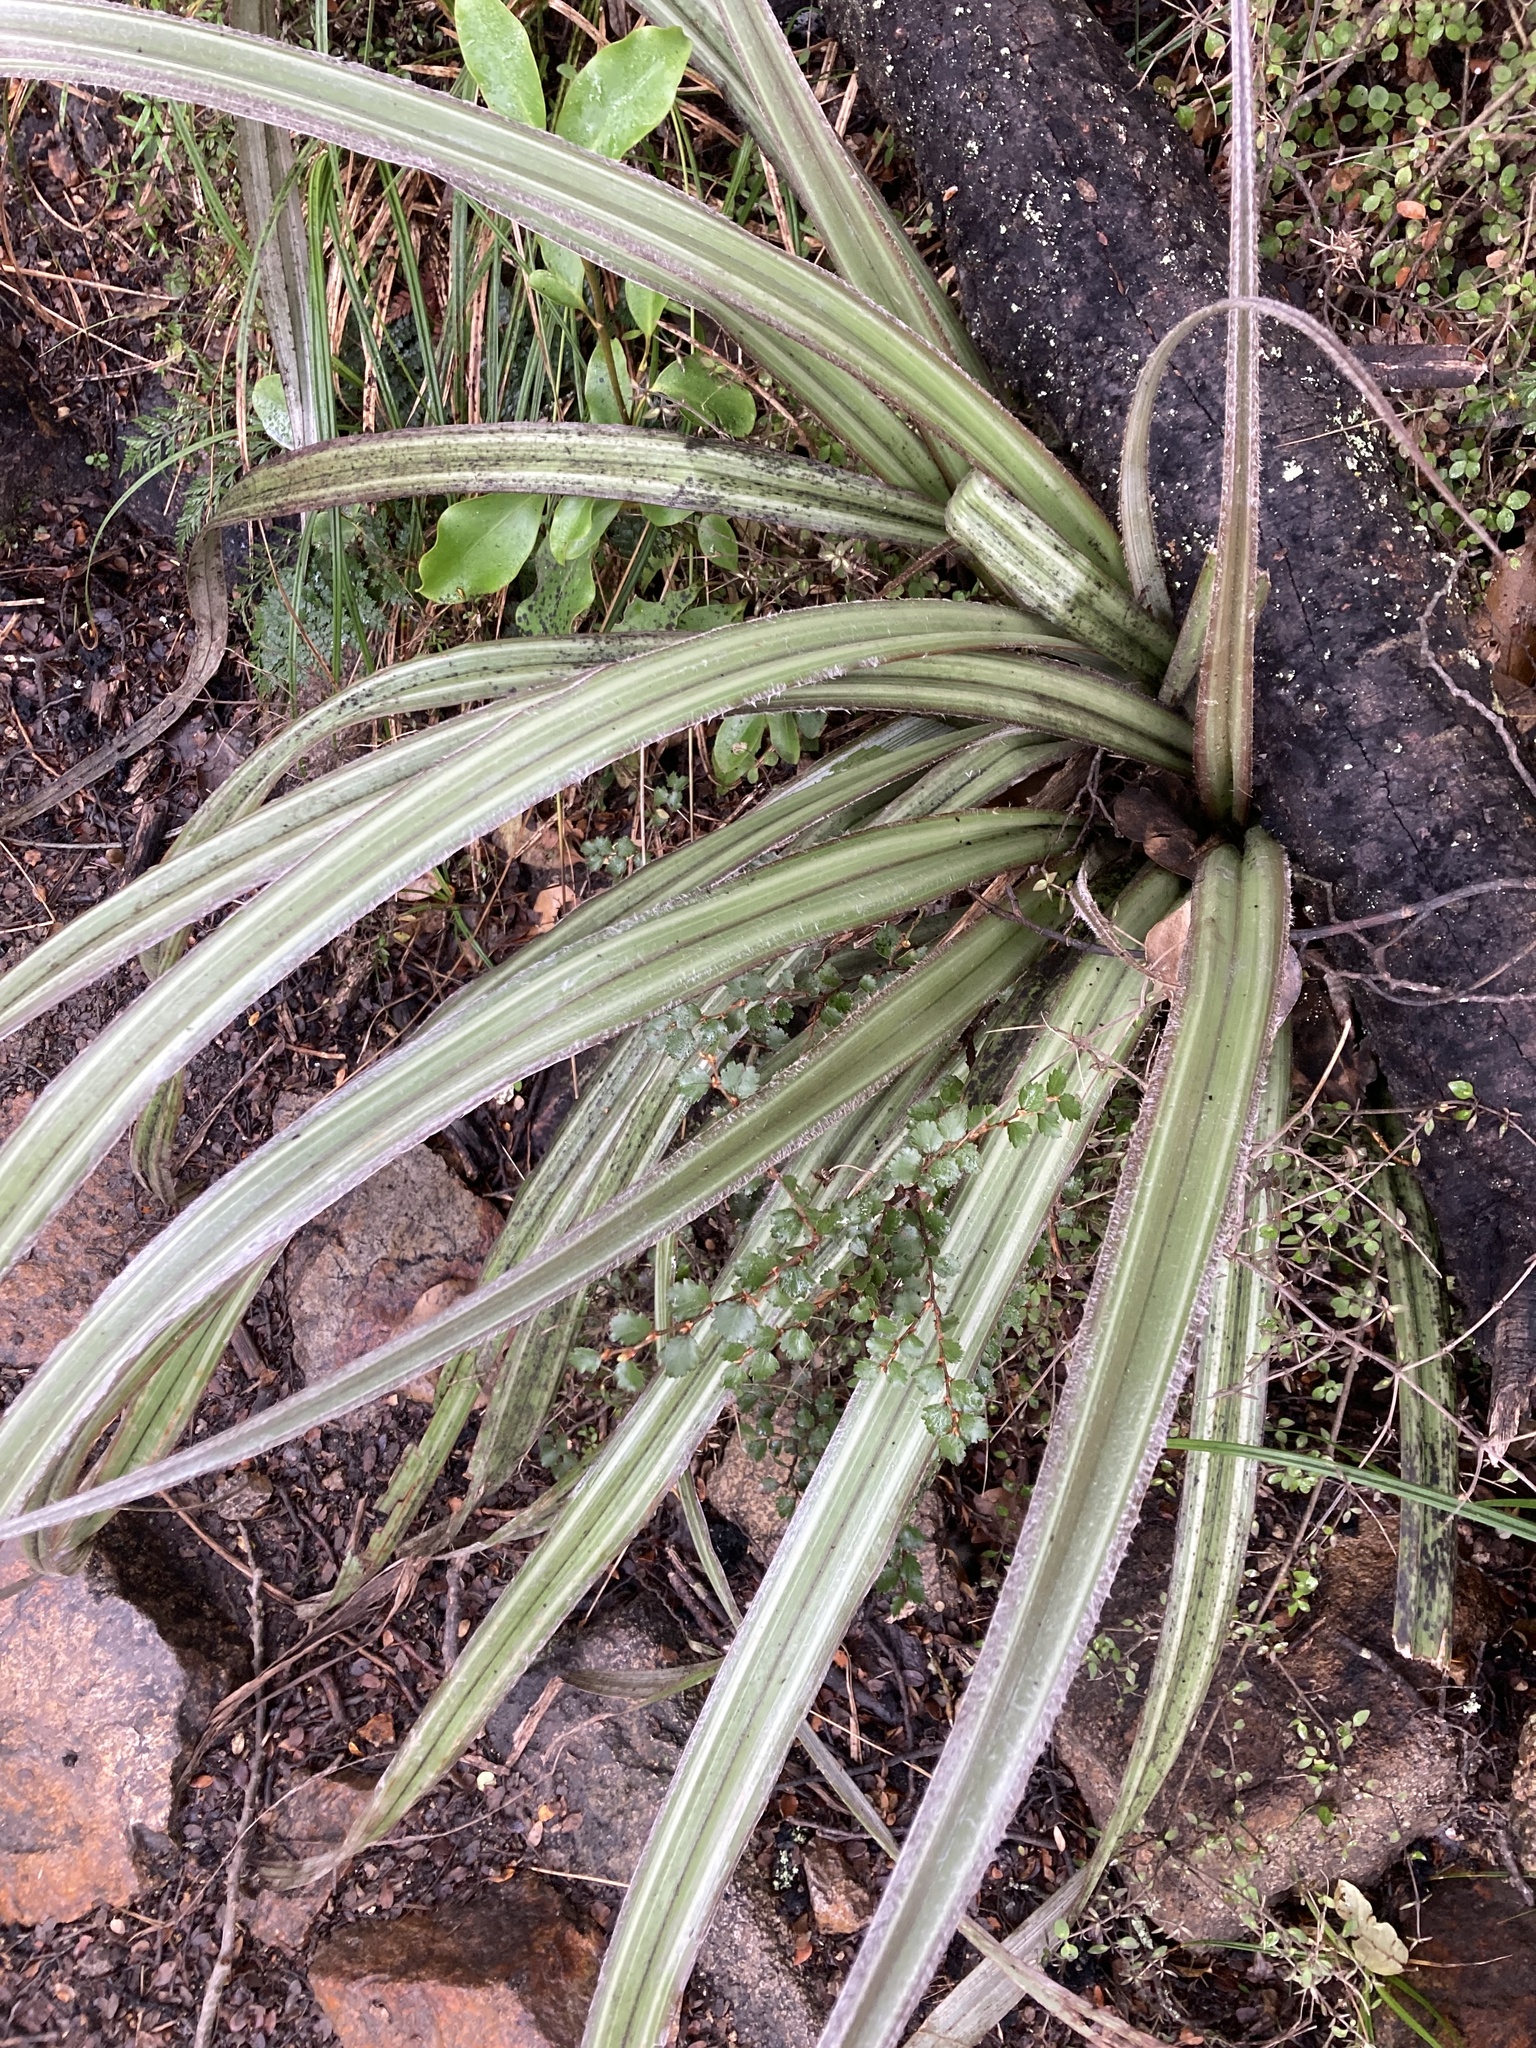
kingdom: Plantae
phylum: Tracheophyta
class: Liliopsida
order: Asparagales
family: Asteliaceae
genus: Astelia
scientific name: Astelia nervosa
